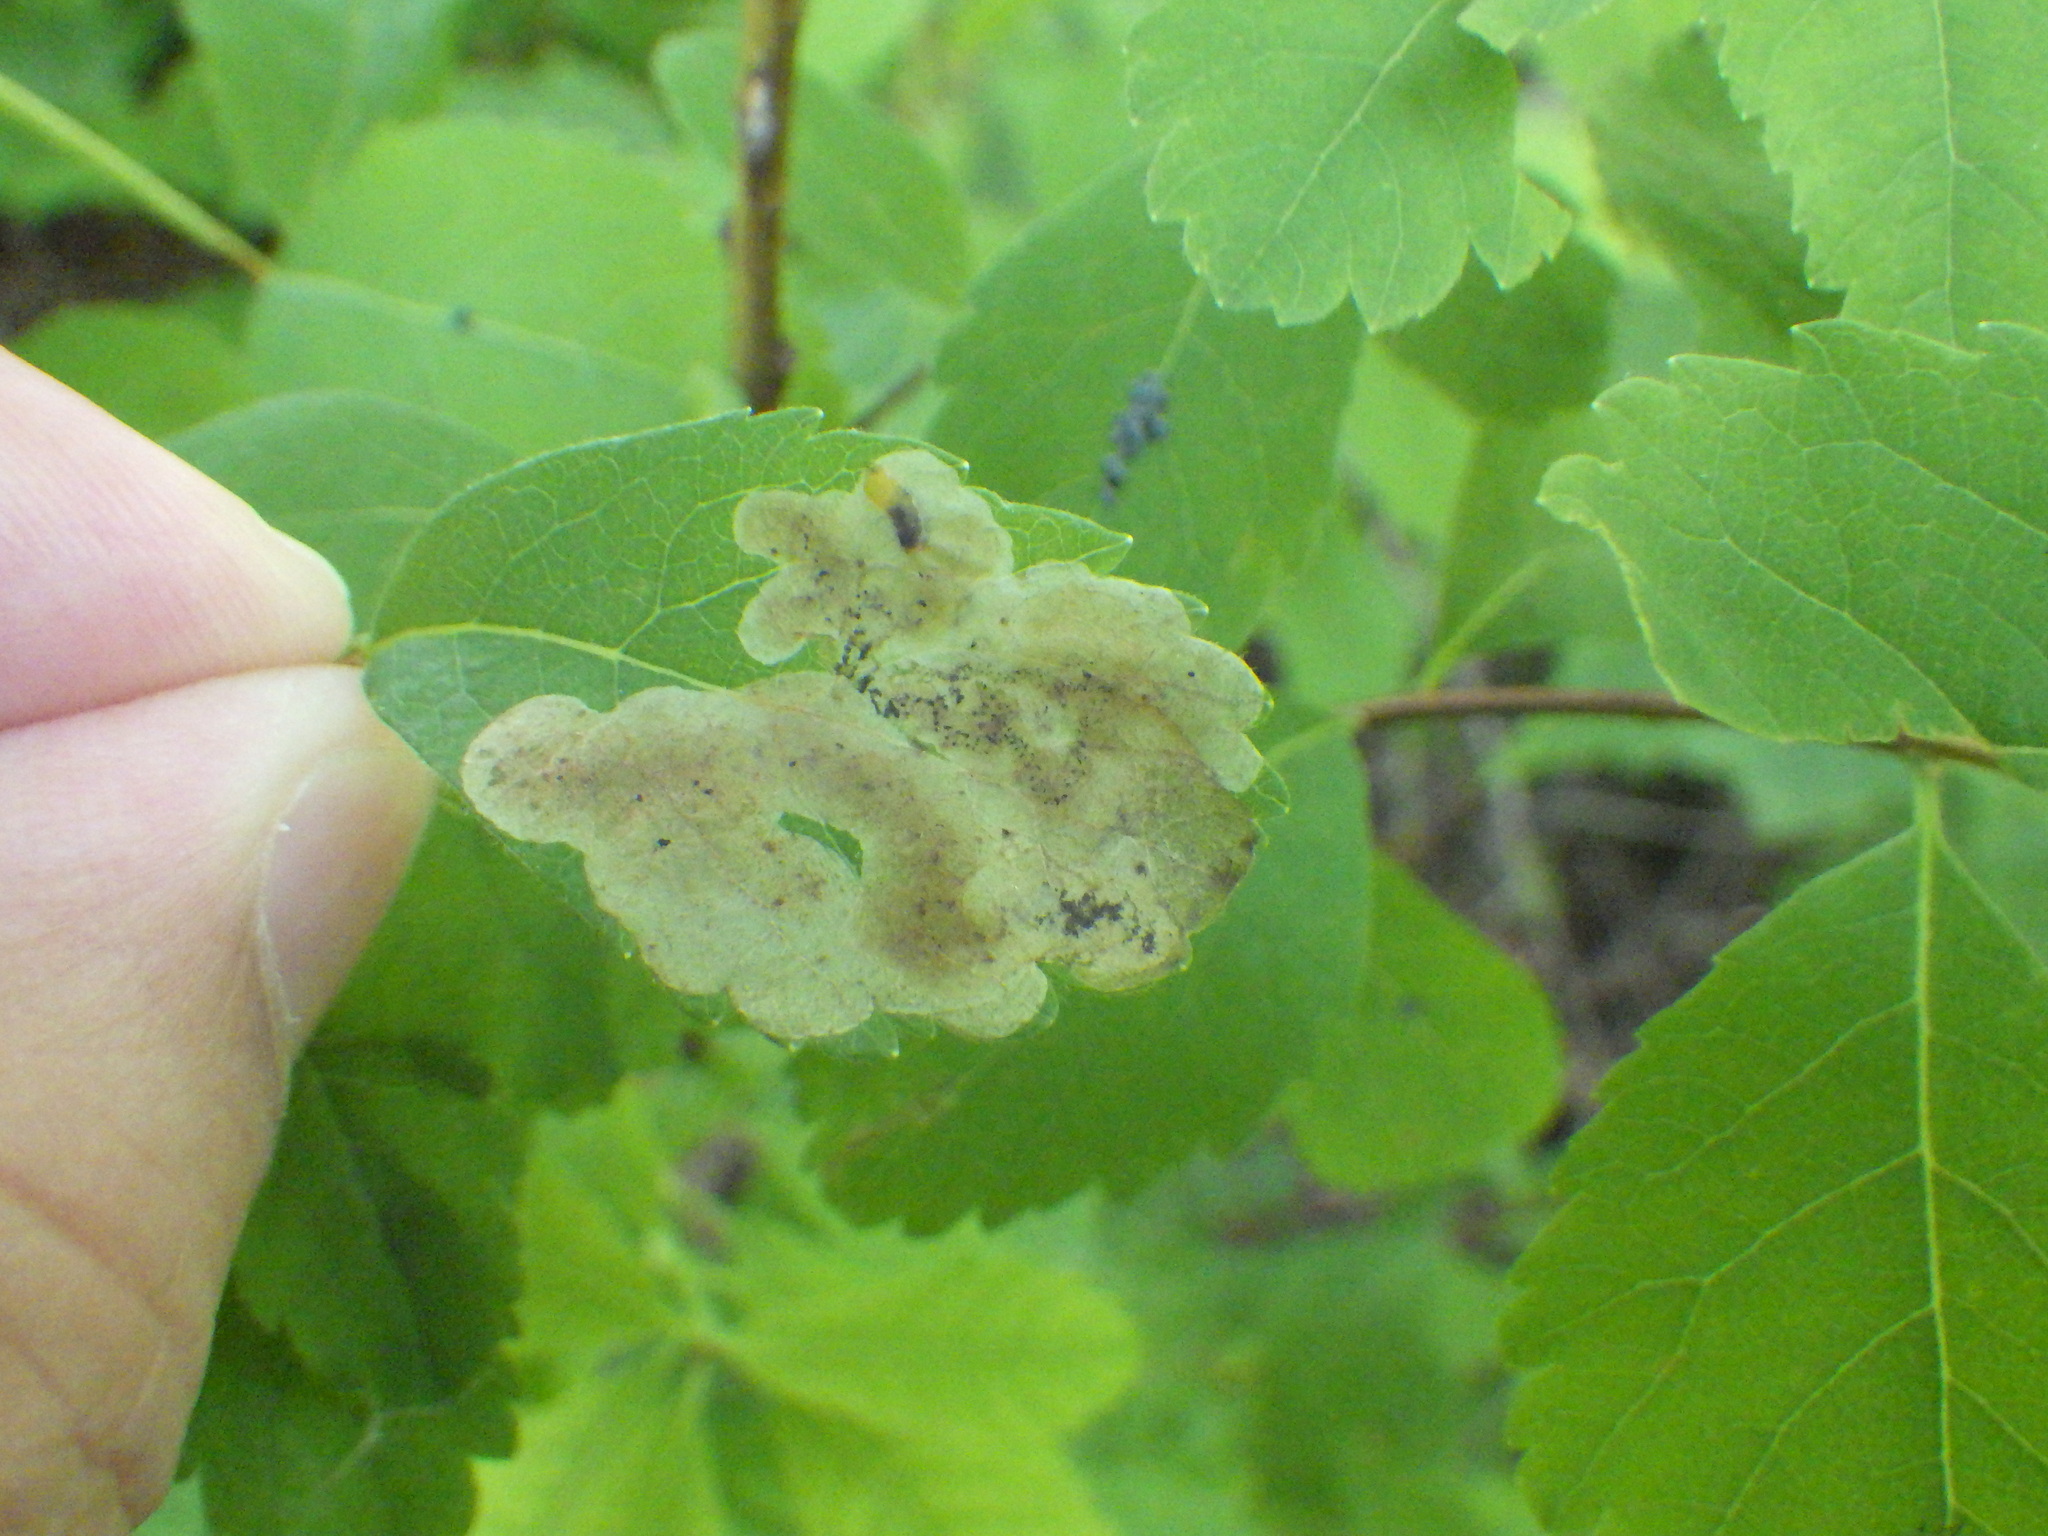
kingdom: Animalia
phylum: Arthropoda
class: Insecta
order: Diptera
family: Agromyzidae
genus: Agromyza
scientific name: Agromyza valdorensis
